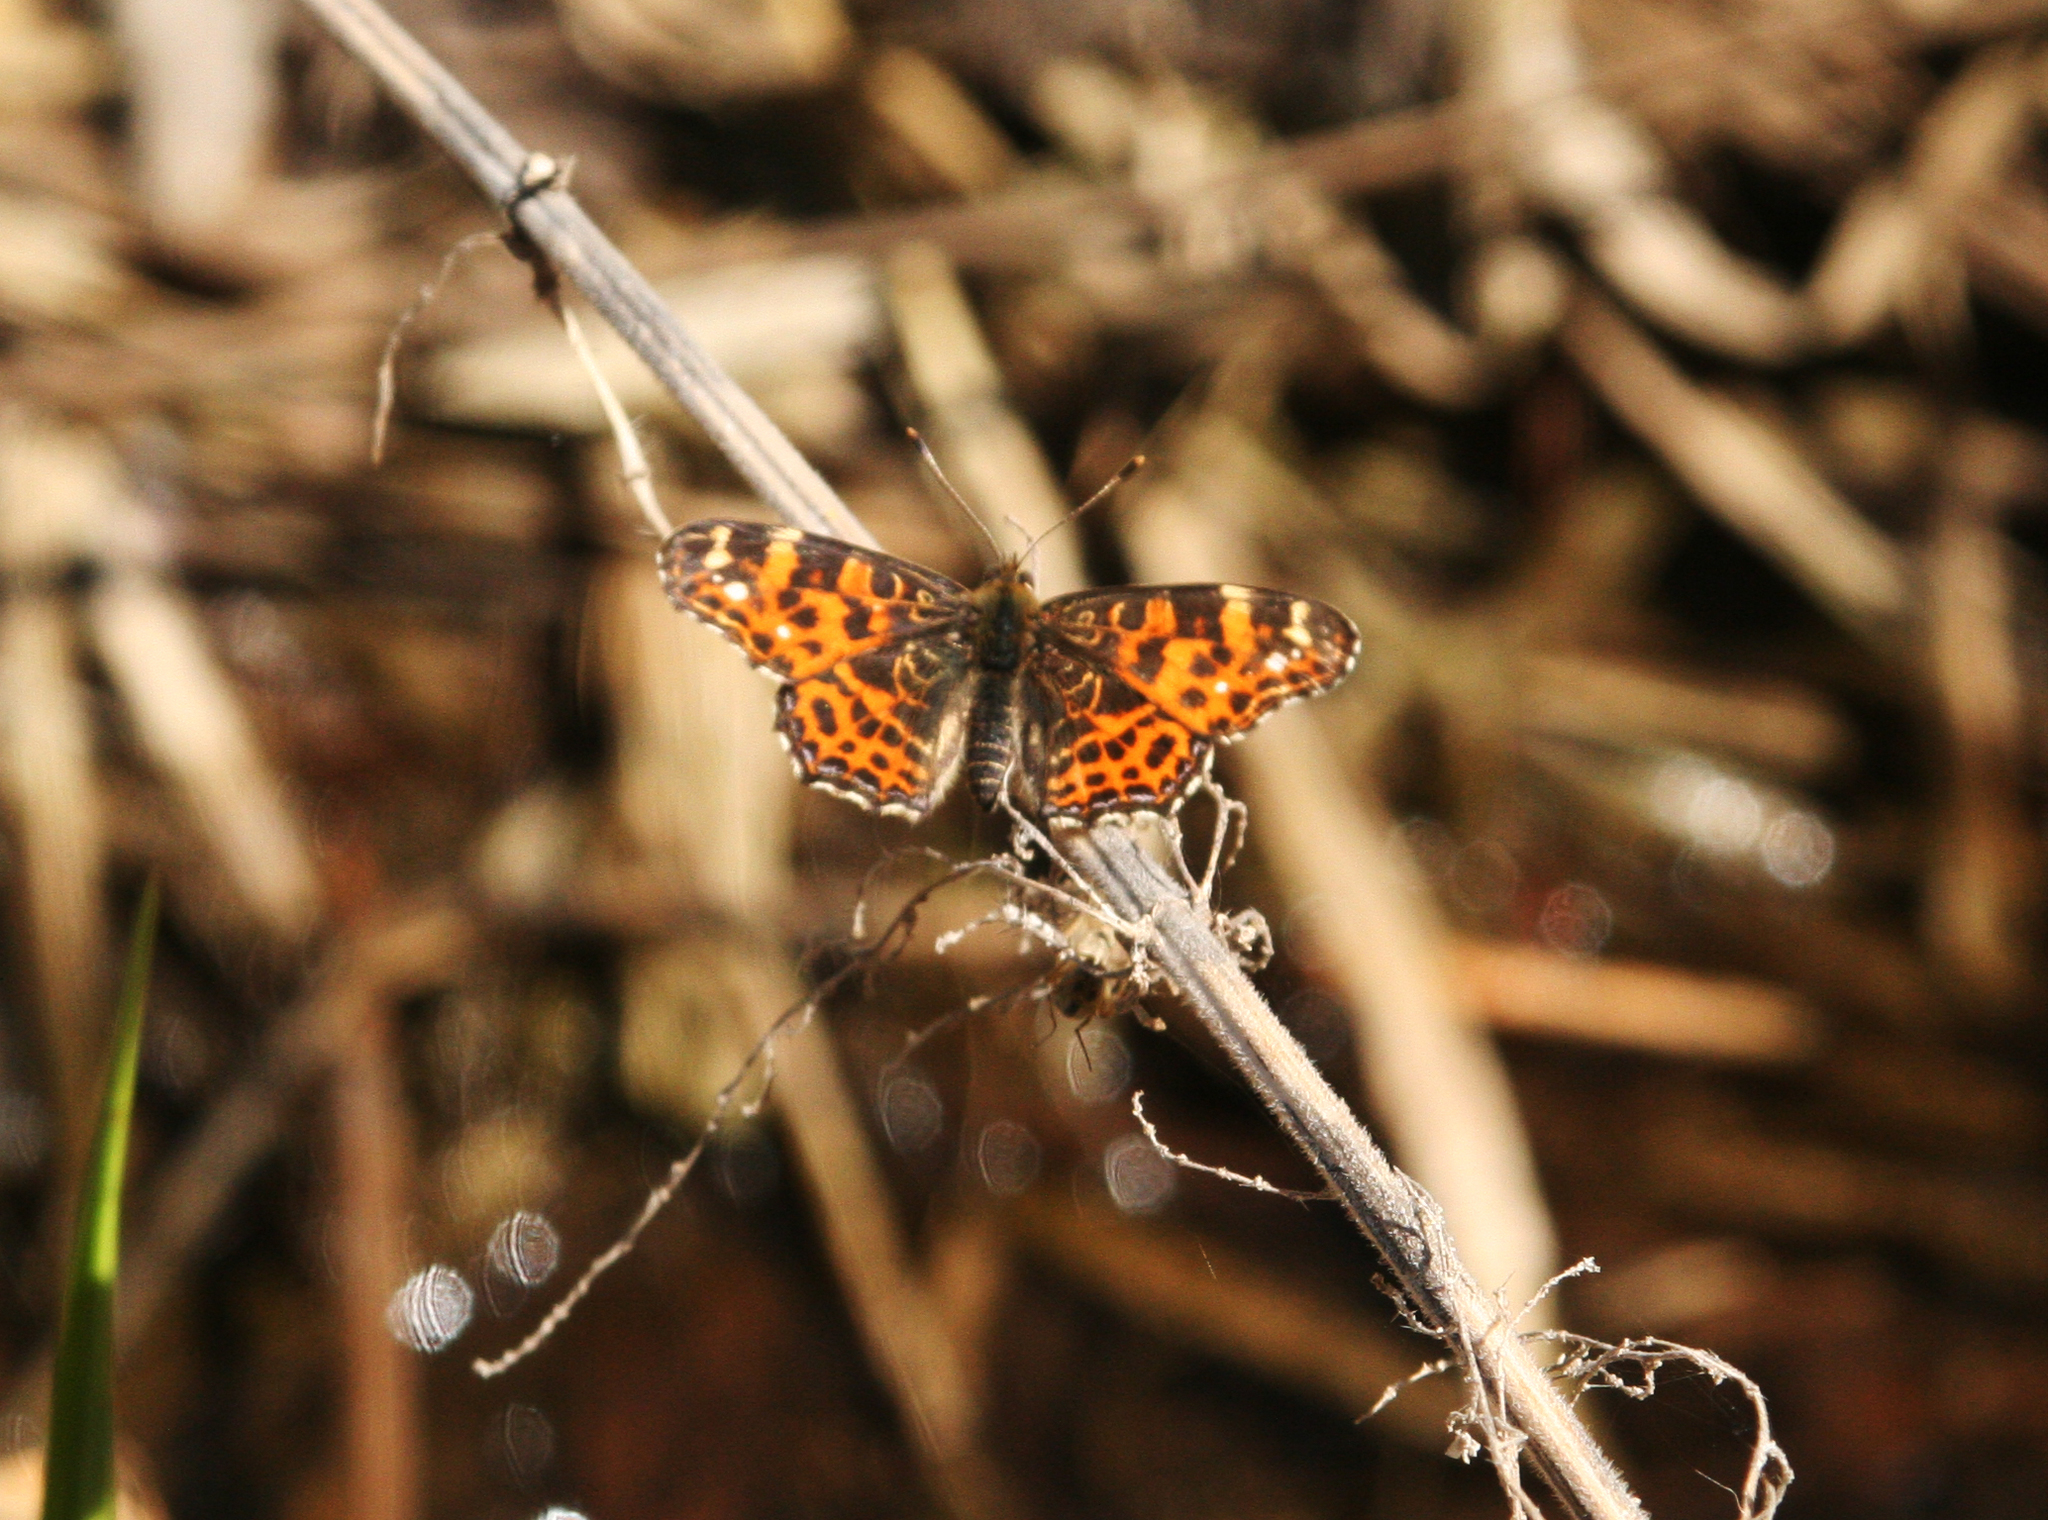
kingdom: Animalia
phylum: Arthropoda
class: Insecta
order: Lepidoptera
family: Nymphalidae
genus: Araschnia
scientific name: Araschnia levana
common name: Map butterfly
